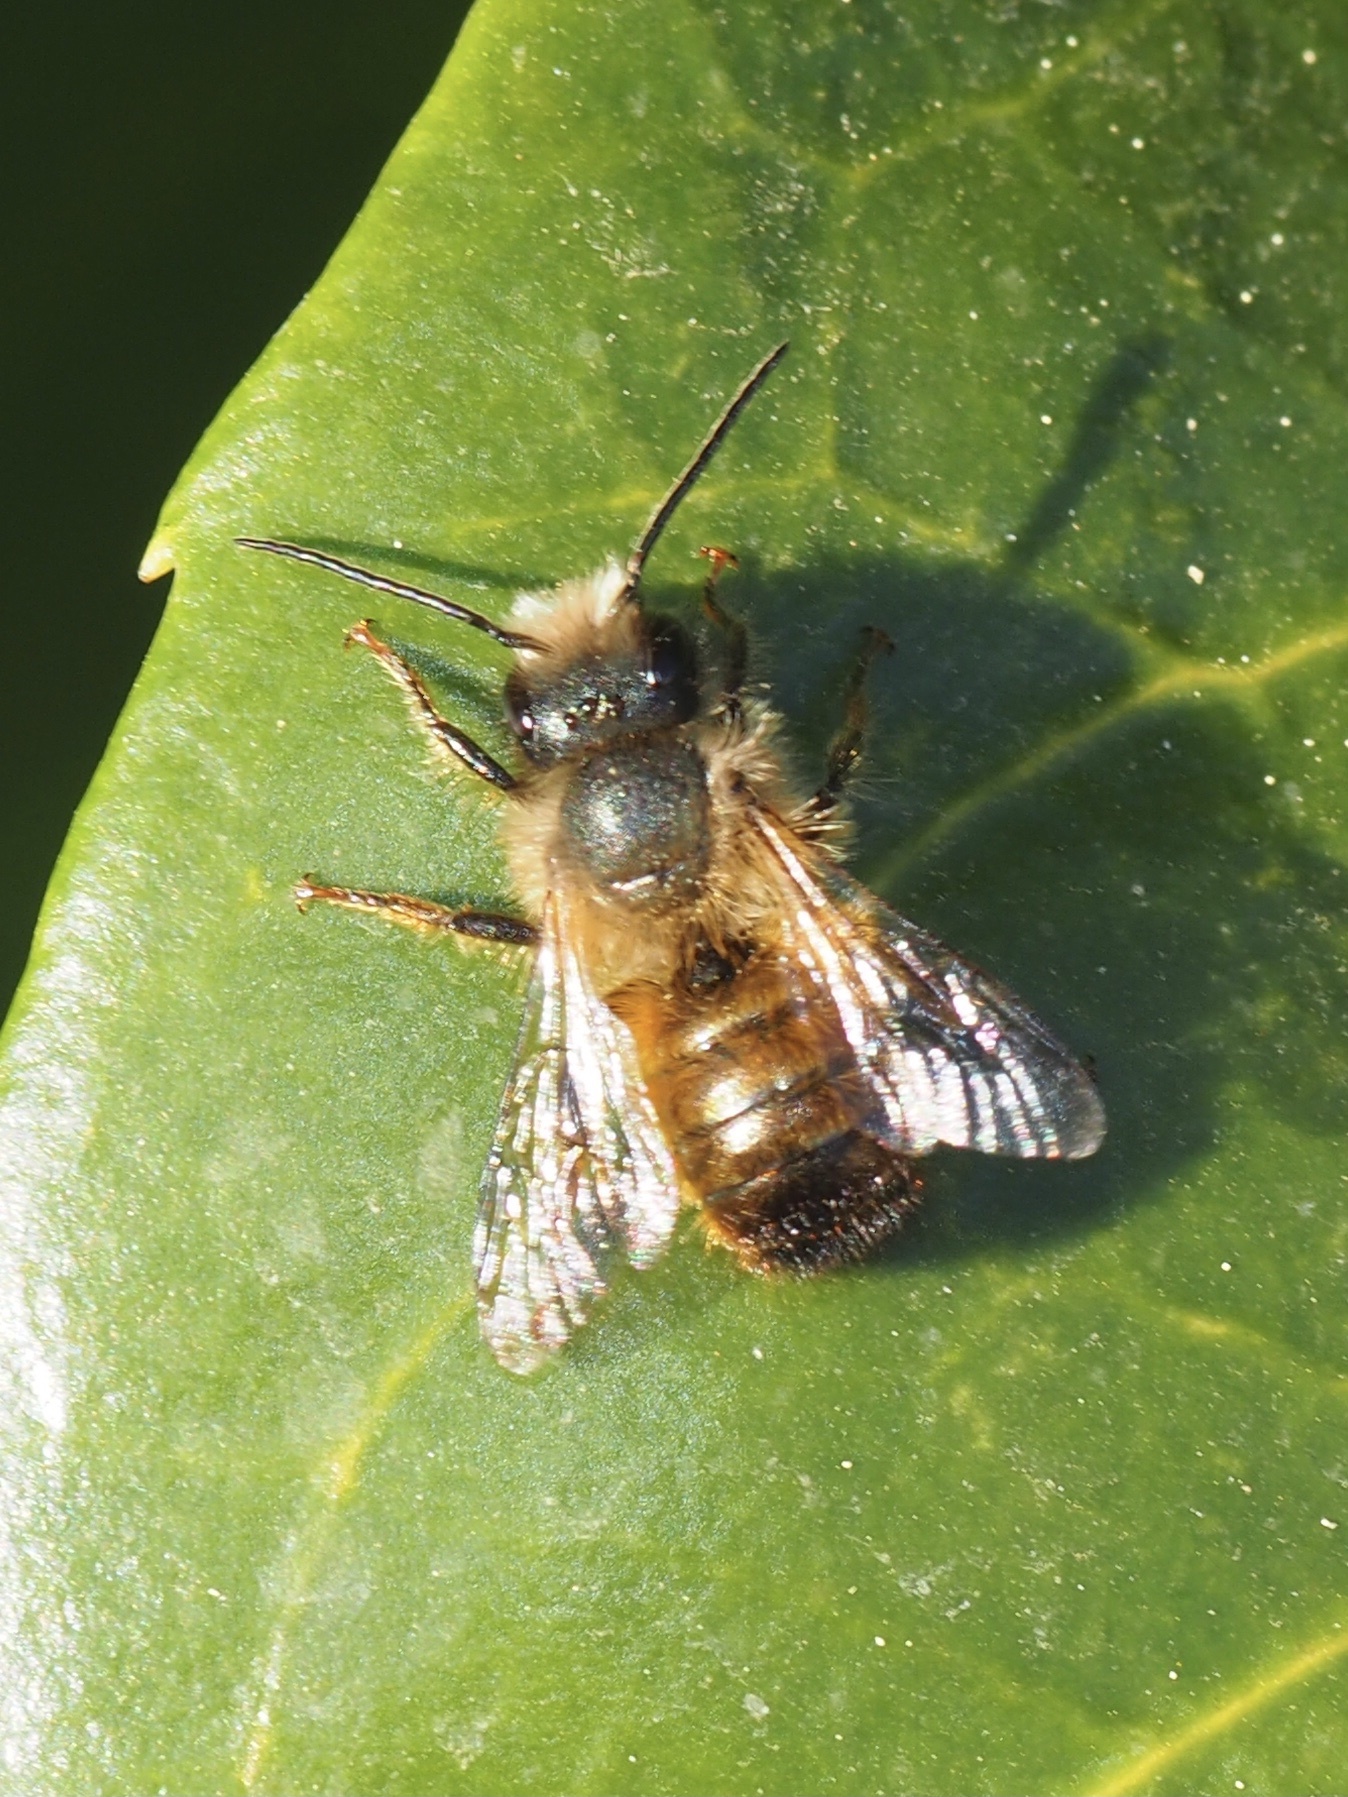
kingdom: Animalia
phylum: Arthropoda
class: Insecta
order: Hymenoptera
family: Megachilidae
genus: Osmia
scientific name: Osmia bicornis
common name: Red mason bee
